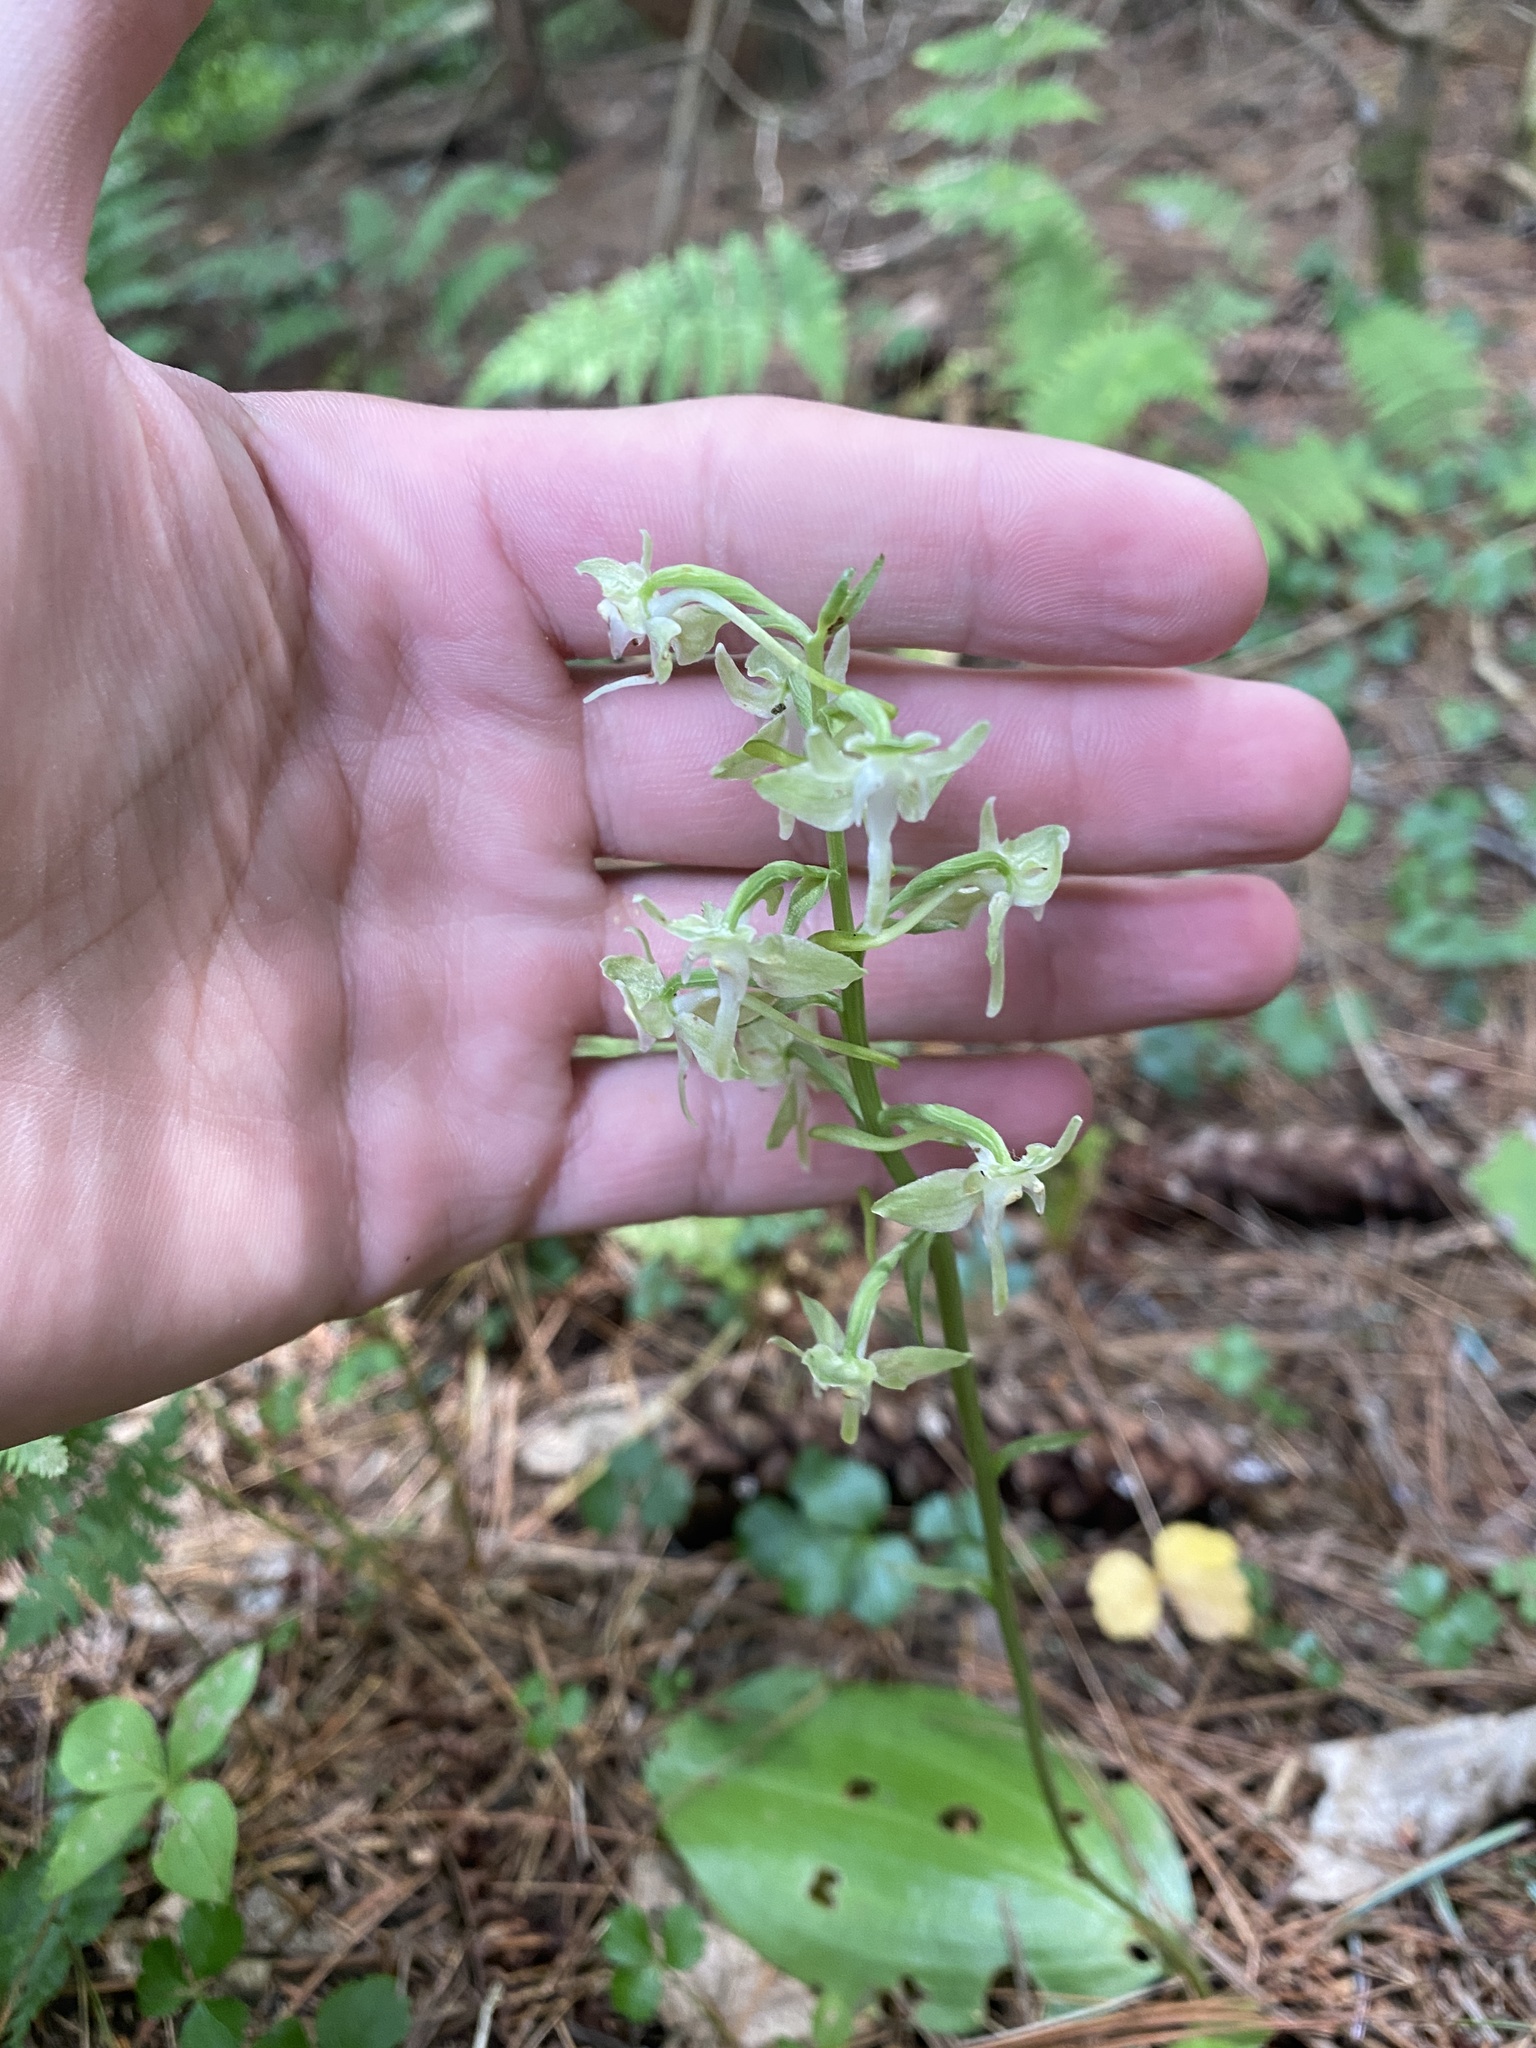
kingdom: Plantae
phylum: Tracheophyta
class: Liliopsida
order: Asparagales
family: Orchidaceae
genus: Platanthera
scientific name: Platanthera orbiculata
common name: Large round-leaved orchid
